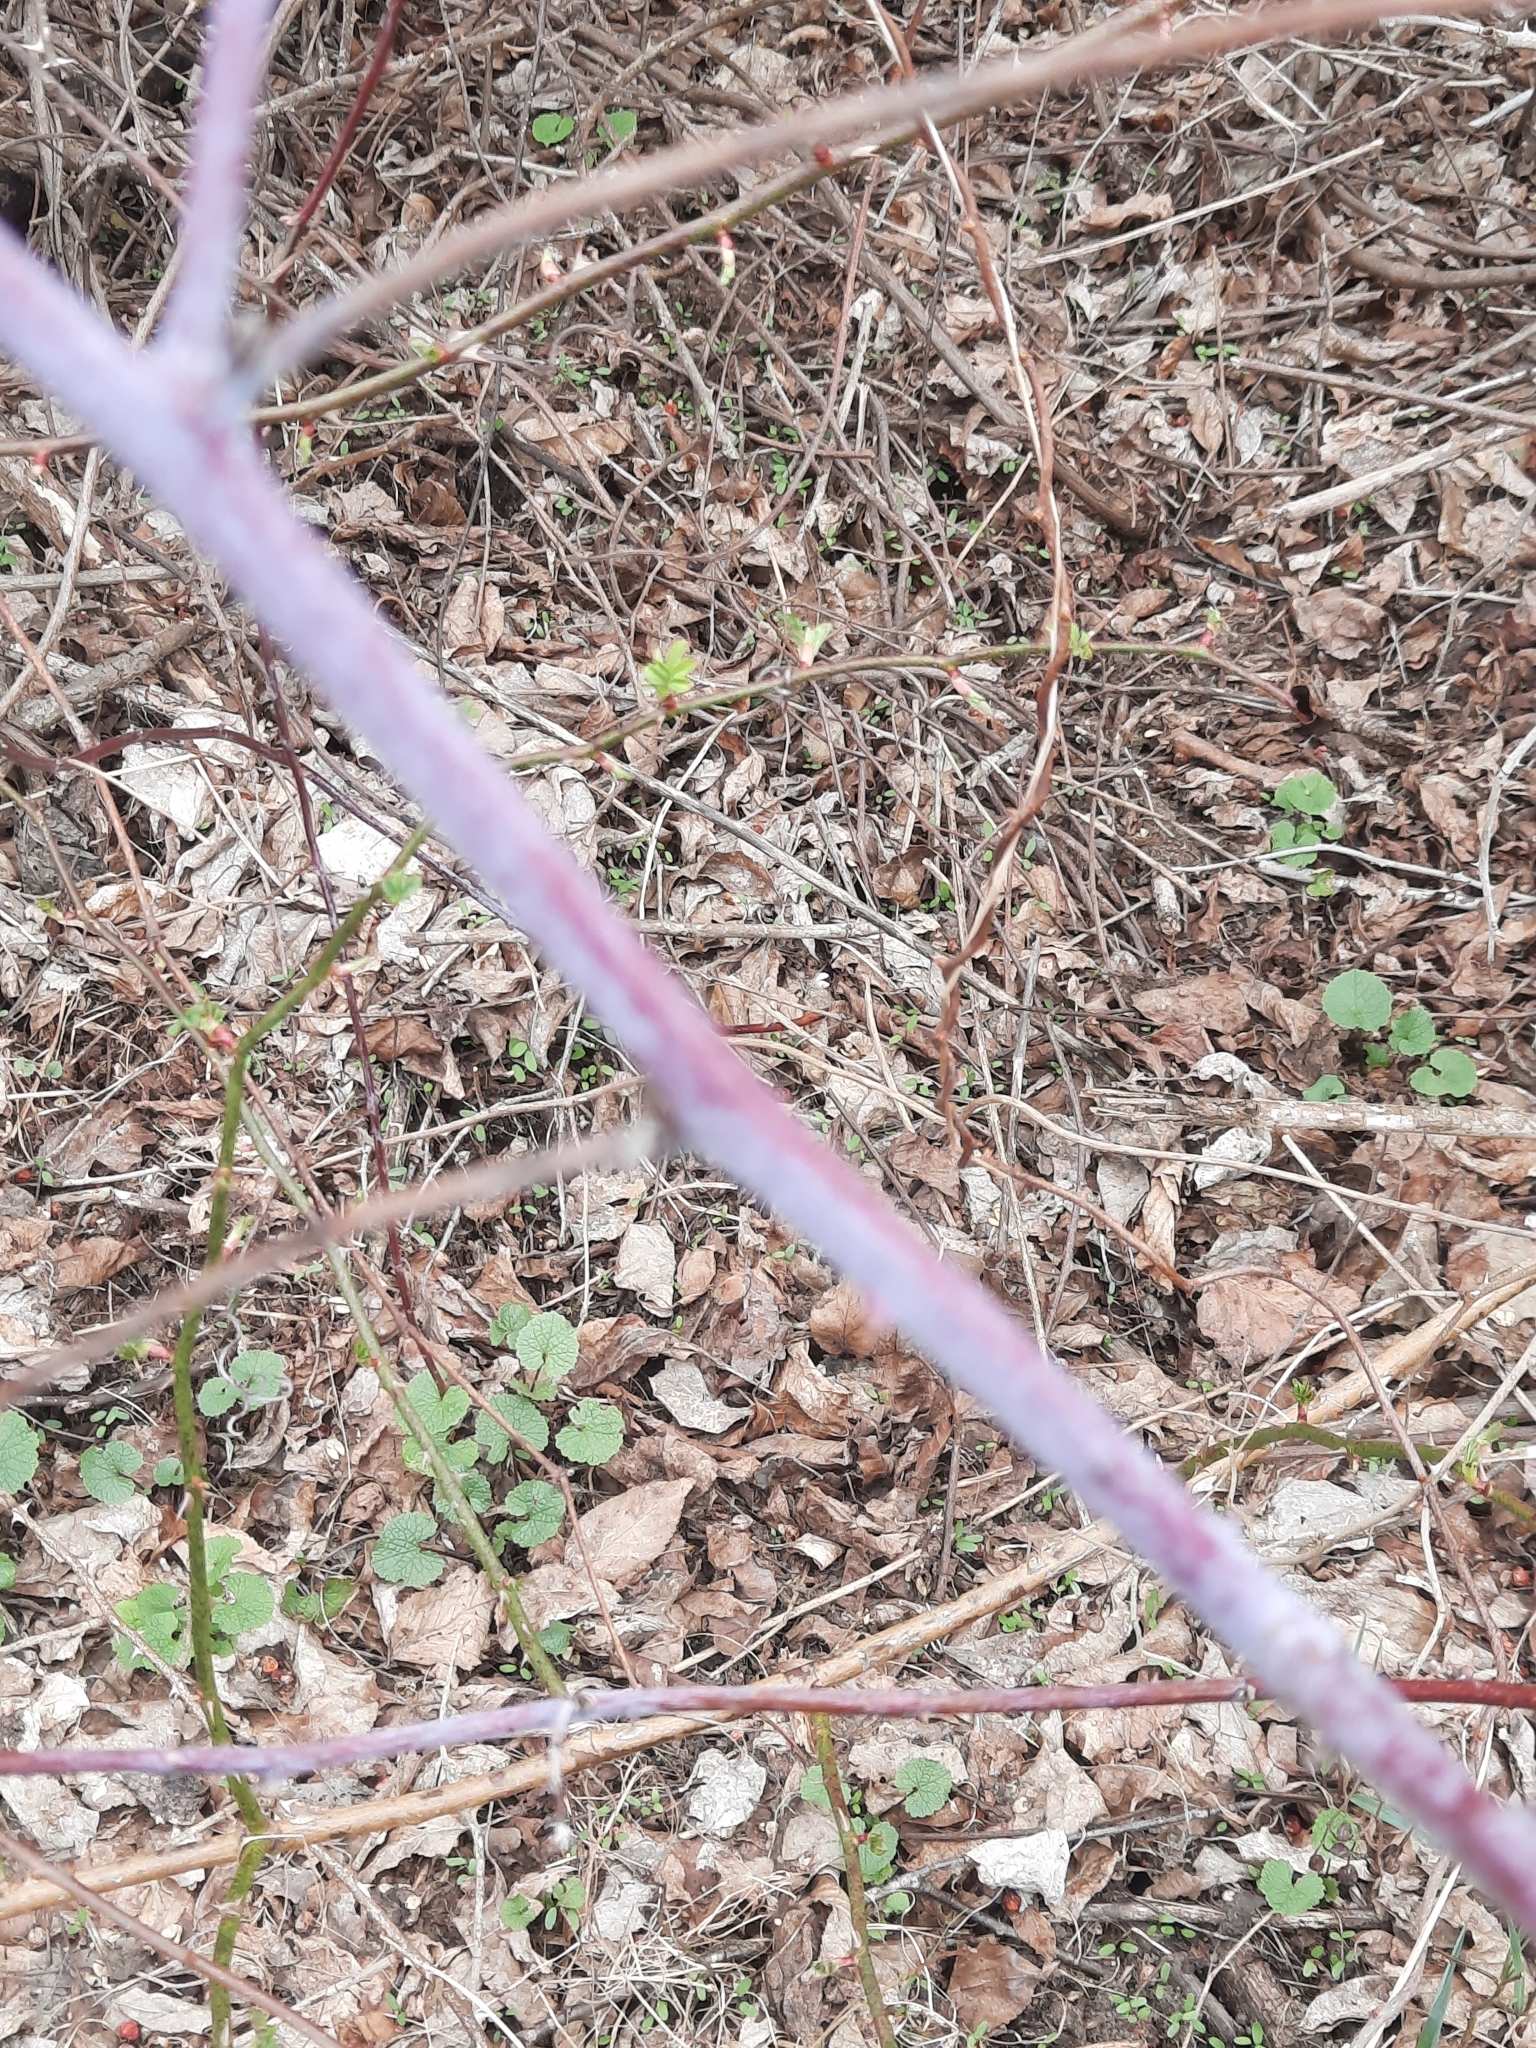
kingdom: Plantae
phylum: Tracheophyta
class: Magnoliopsida
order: Rosales
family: Rosaceae
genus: Rubus
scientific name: Rubus occidentalis
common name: Black raspberry
